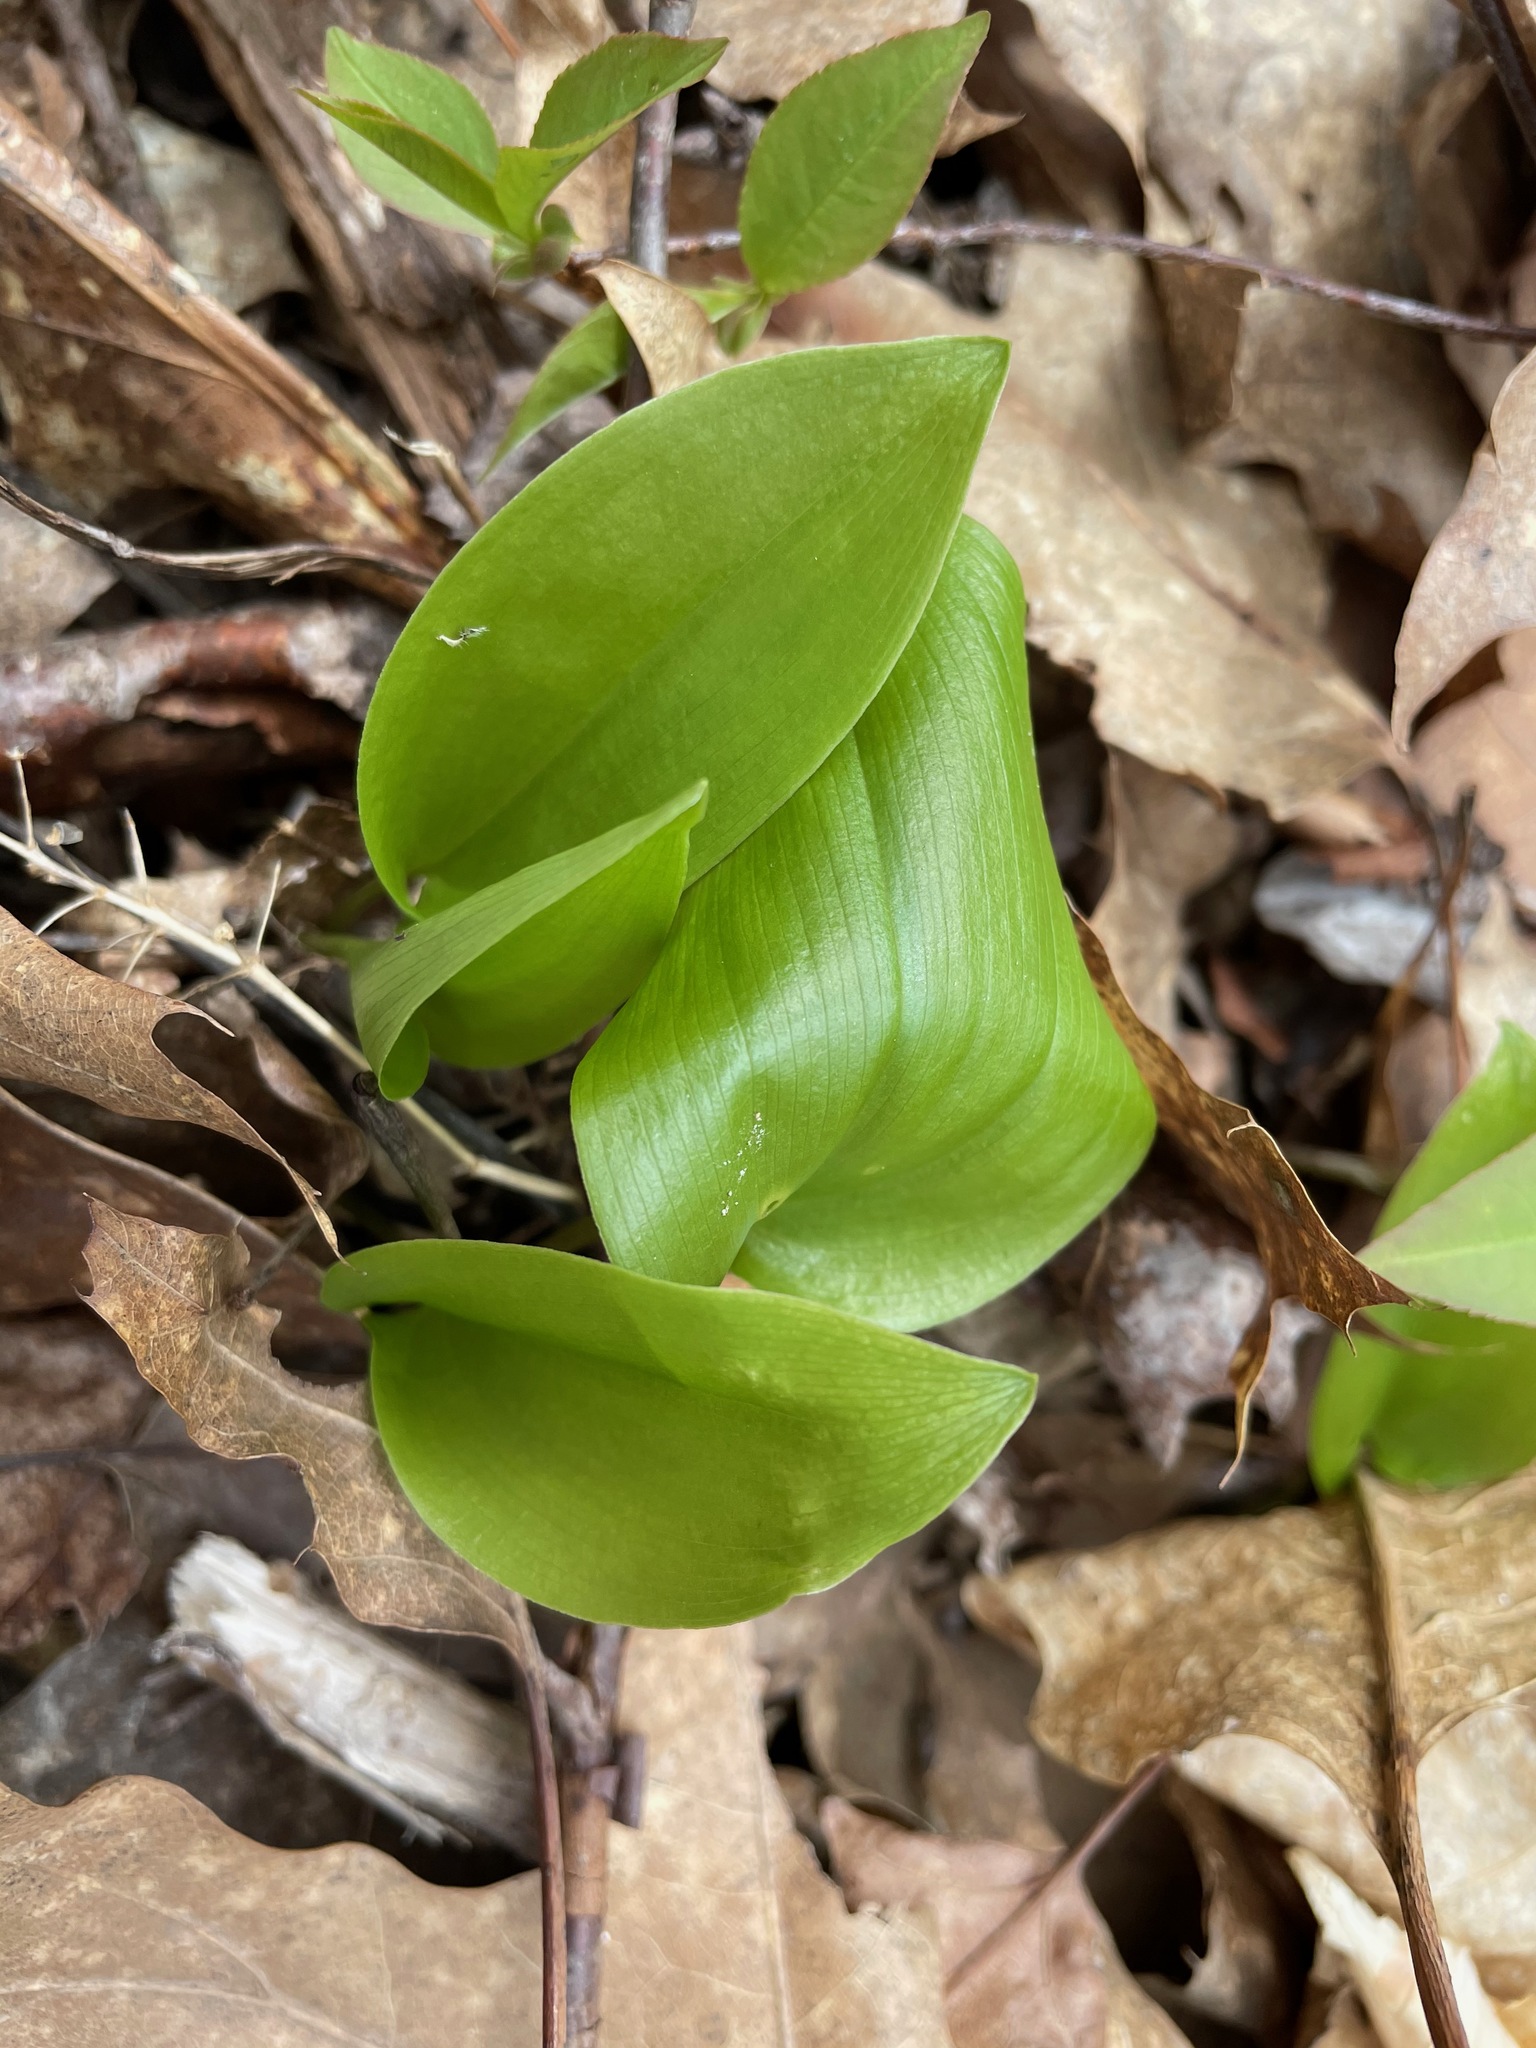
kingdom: Plantae
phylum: Tracheophyta
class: Liliopsida
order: Asparagales
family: Asparagaceae
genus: Maianthemum
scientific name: Maianthemum canadense
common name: False lily-of-the-valley
